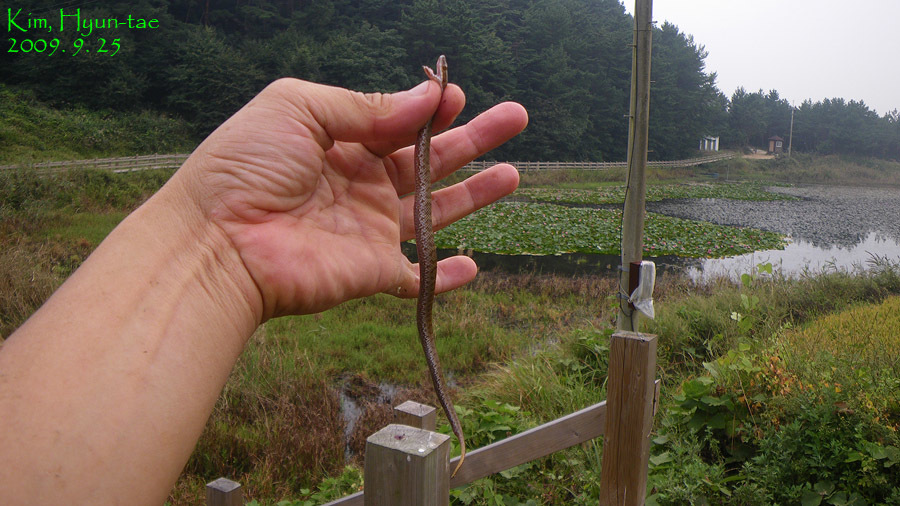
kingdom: Animalia
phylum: Chordata
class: Squamata
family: Viperidae
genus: Gloydius
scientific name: Gloydius ussuriensis
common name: Ussuri mamushi
